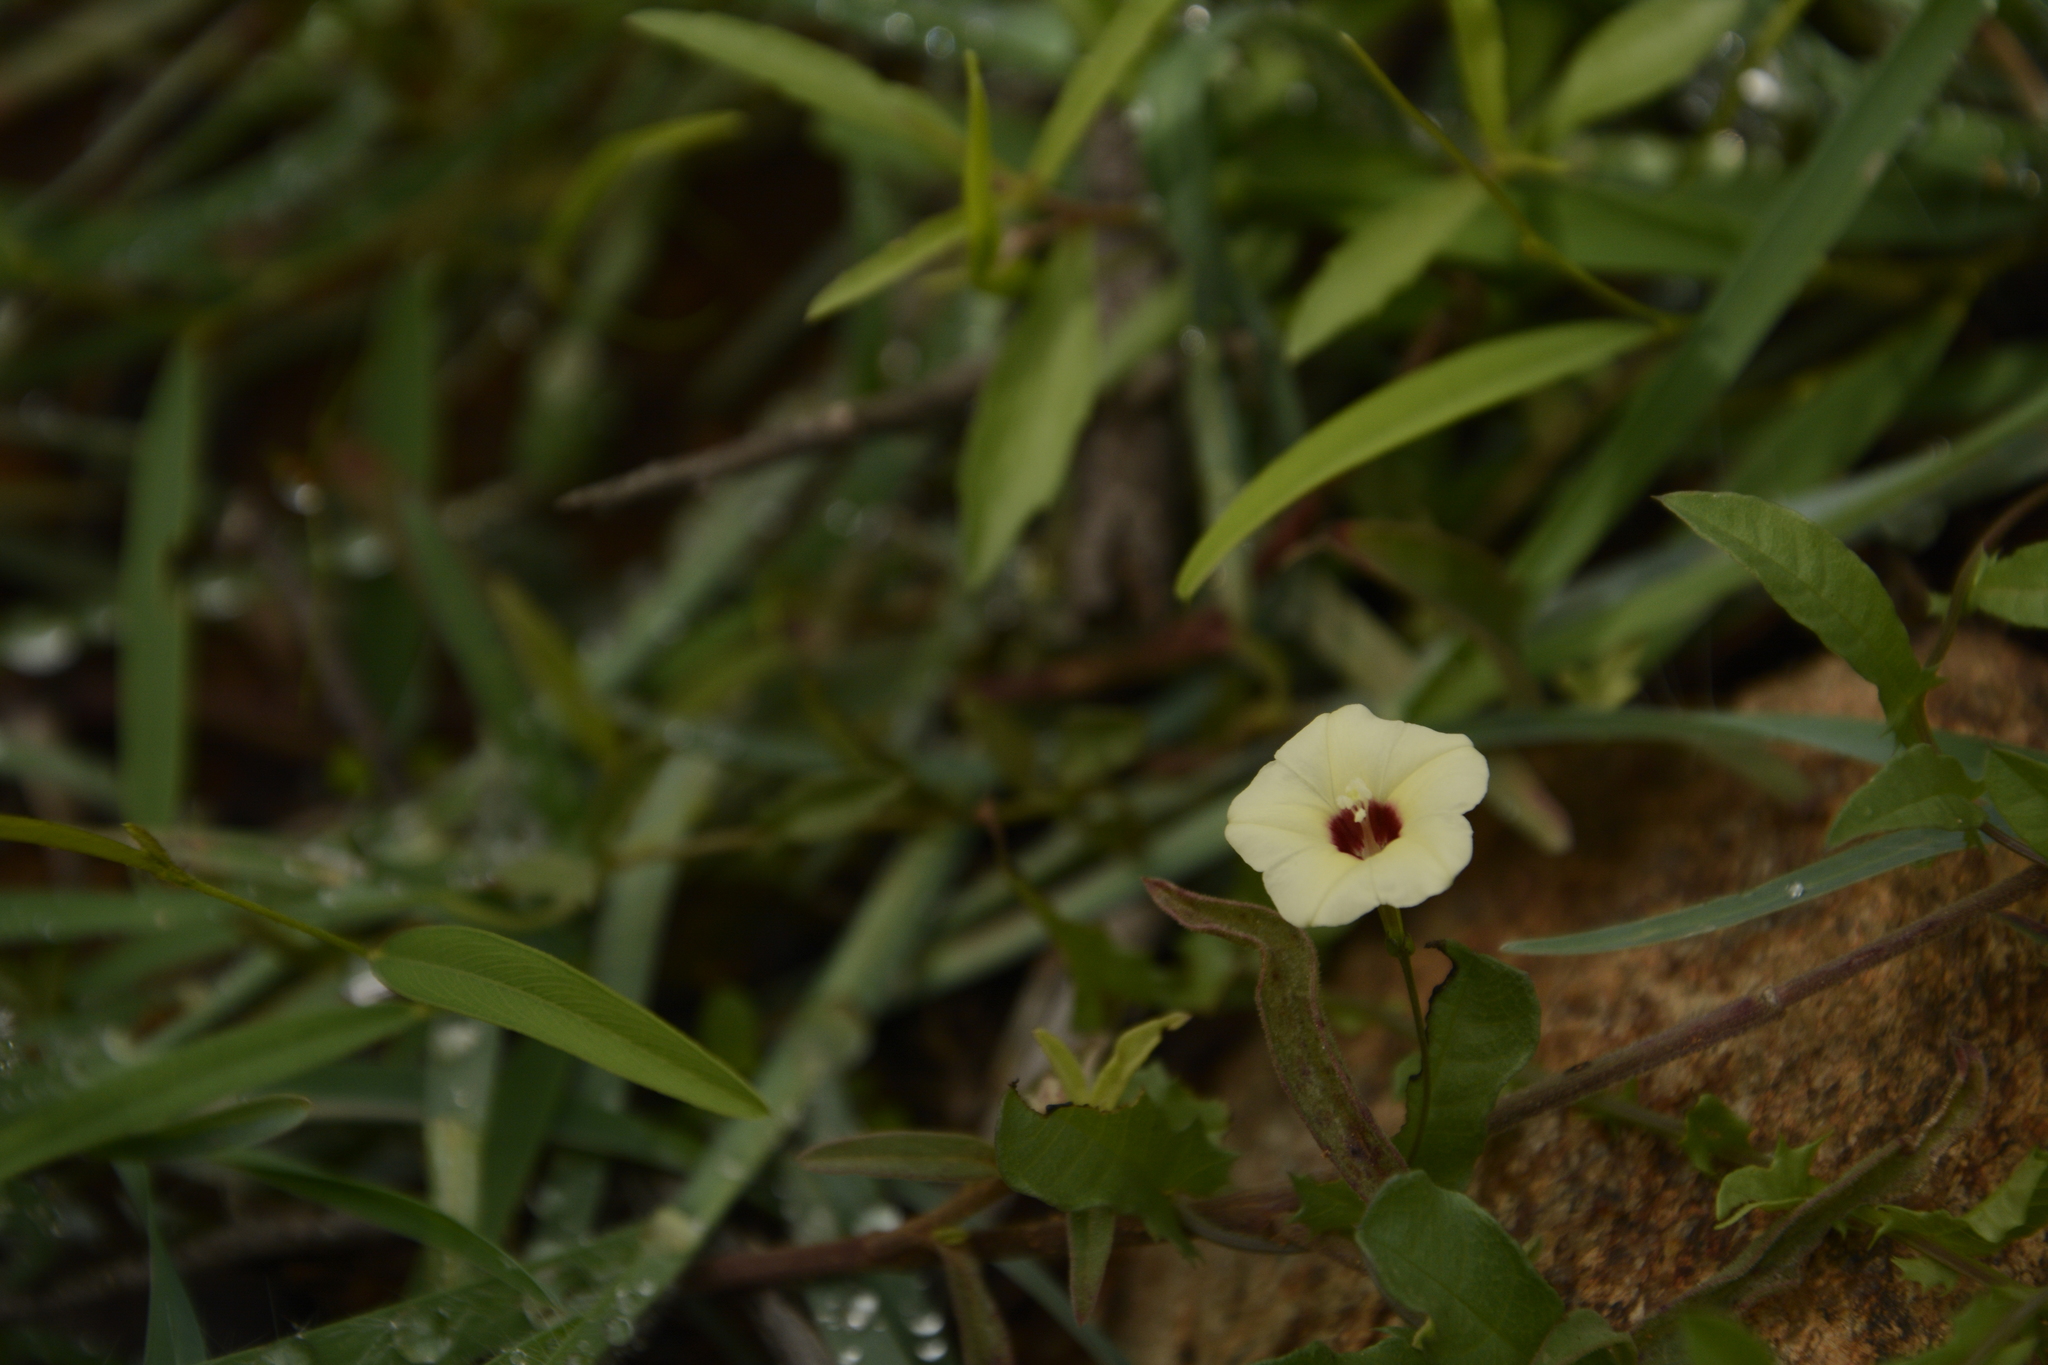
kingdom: Plantae
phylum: Tracheophyta
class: Magnoliopsida
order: Solanales
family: Convolvulaceae
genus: Xenostegia
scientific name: Xenostegia tridentata
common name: African morningvine
